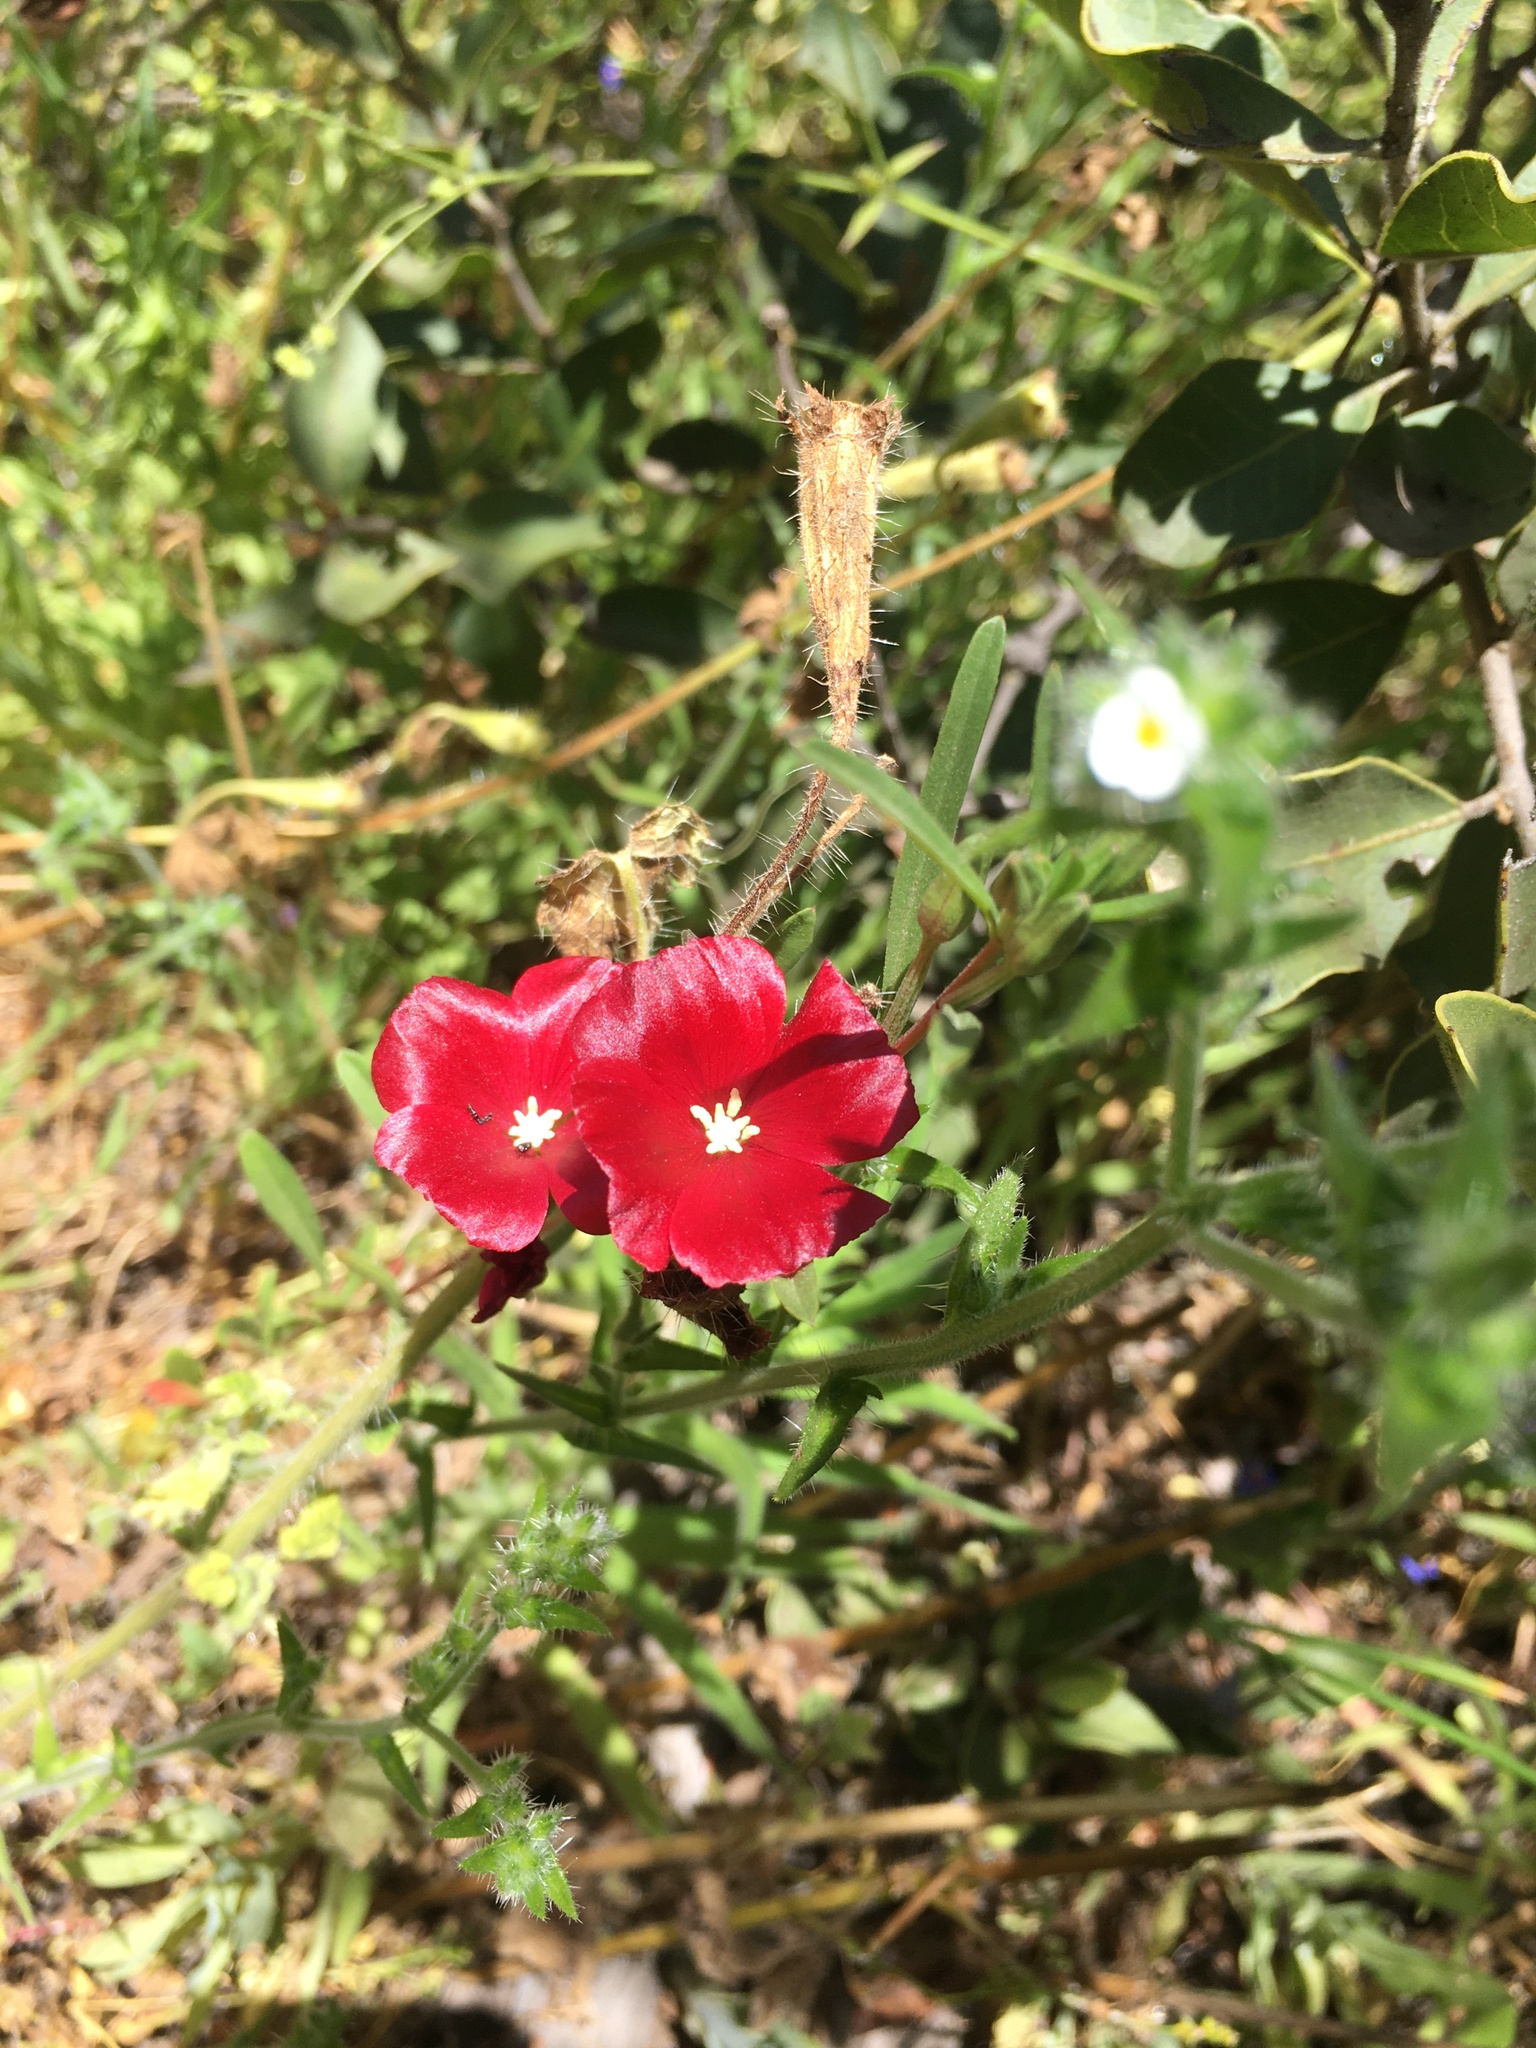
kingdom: Plantae
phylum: Tracheophyta
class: Magnoliopsida
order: Myrtales
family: Onagraceae
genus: Clarkia
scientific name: Clarkia tenella
